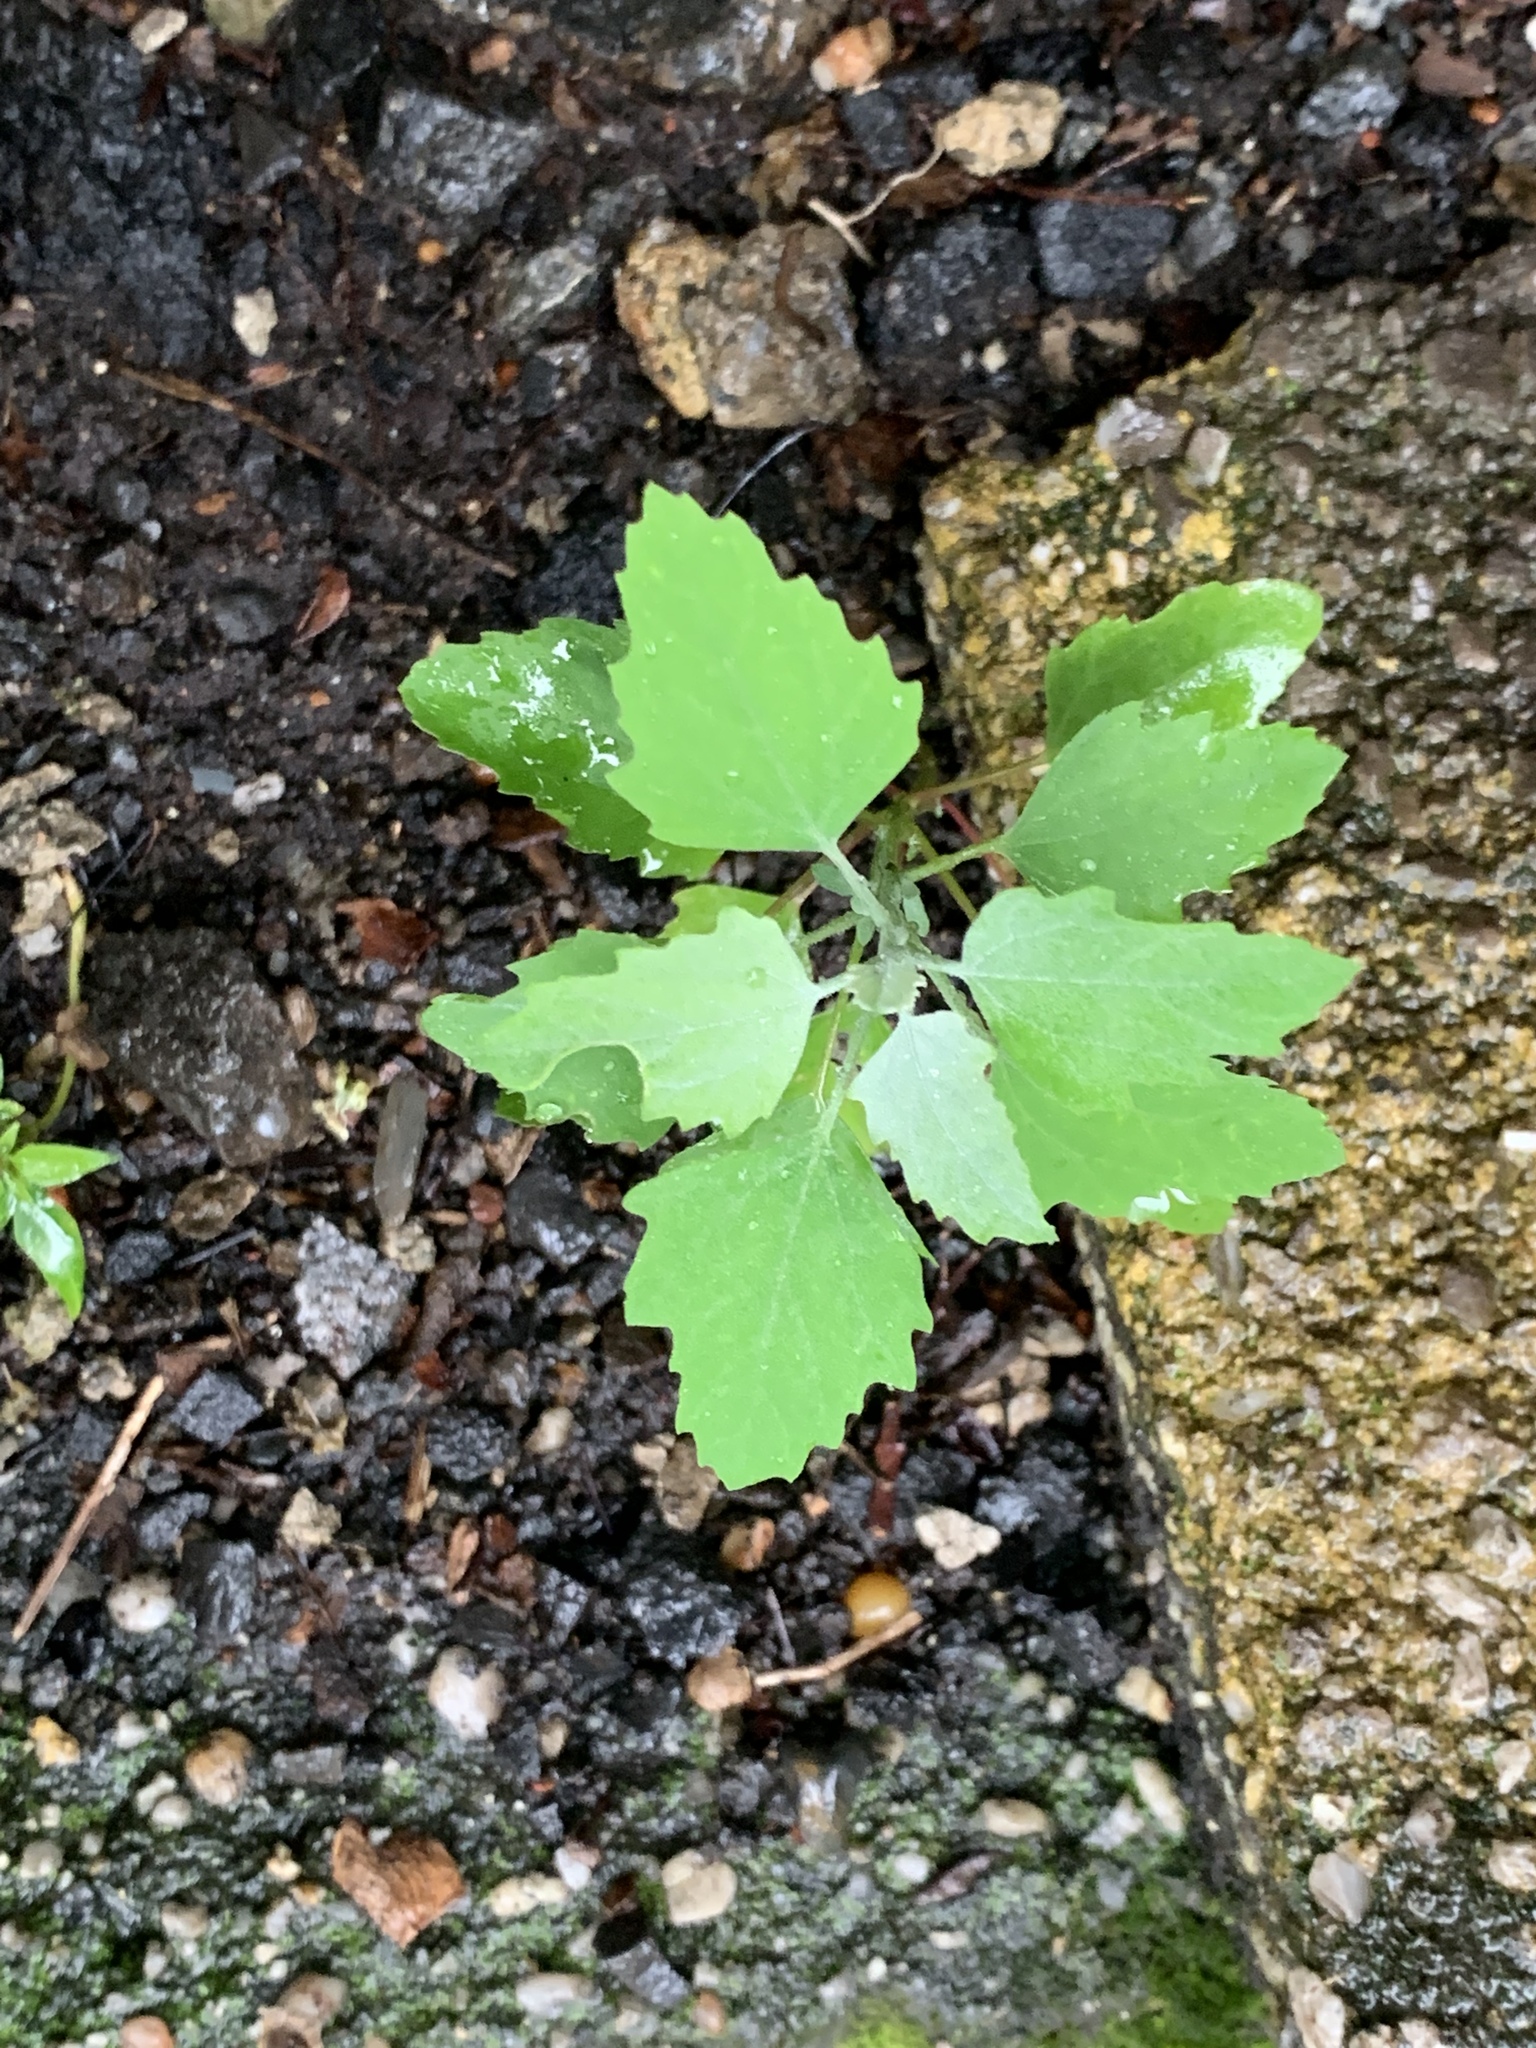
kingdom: Plantae
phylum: Tracheophyta
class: Magnoliopsida
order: Caryophyllales
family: Amaranthaceae
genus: Chenopodium
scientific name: Chenopodium album
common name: Fat-hen
